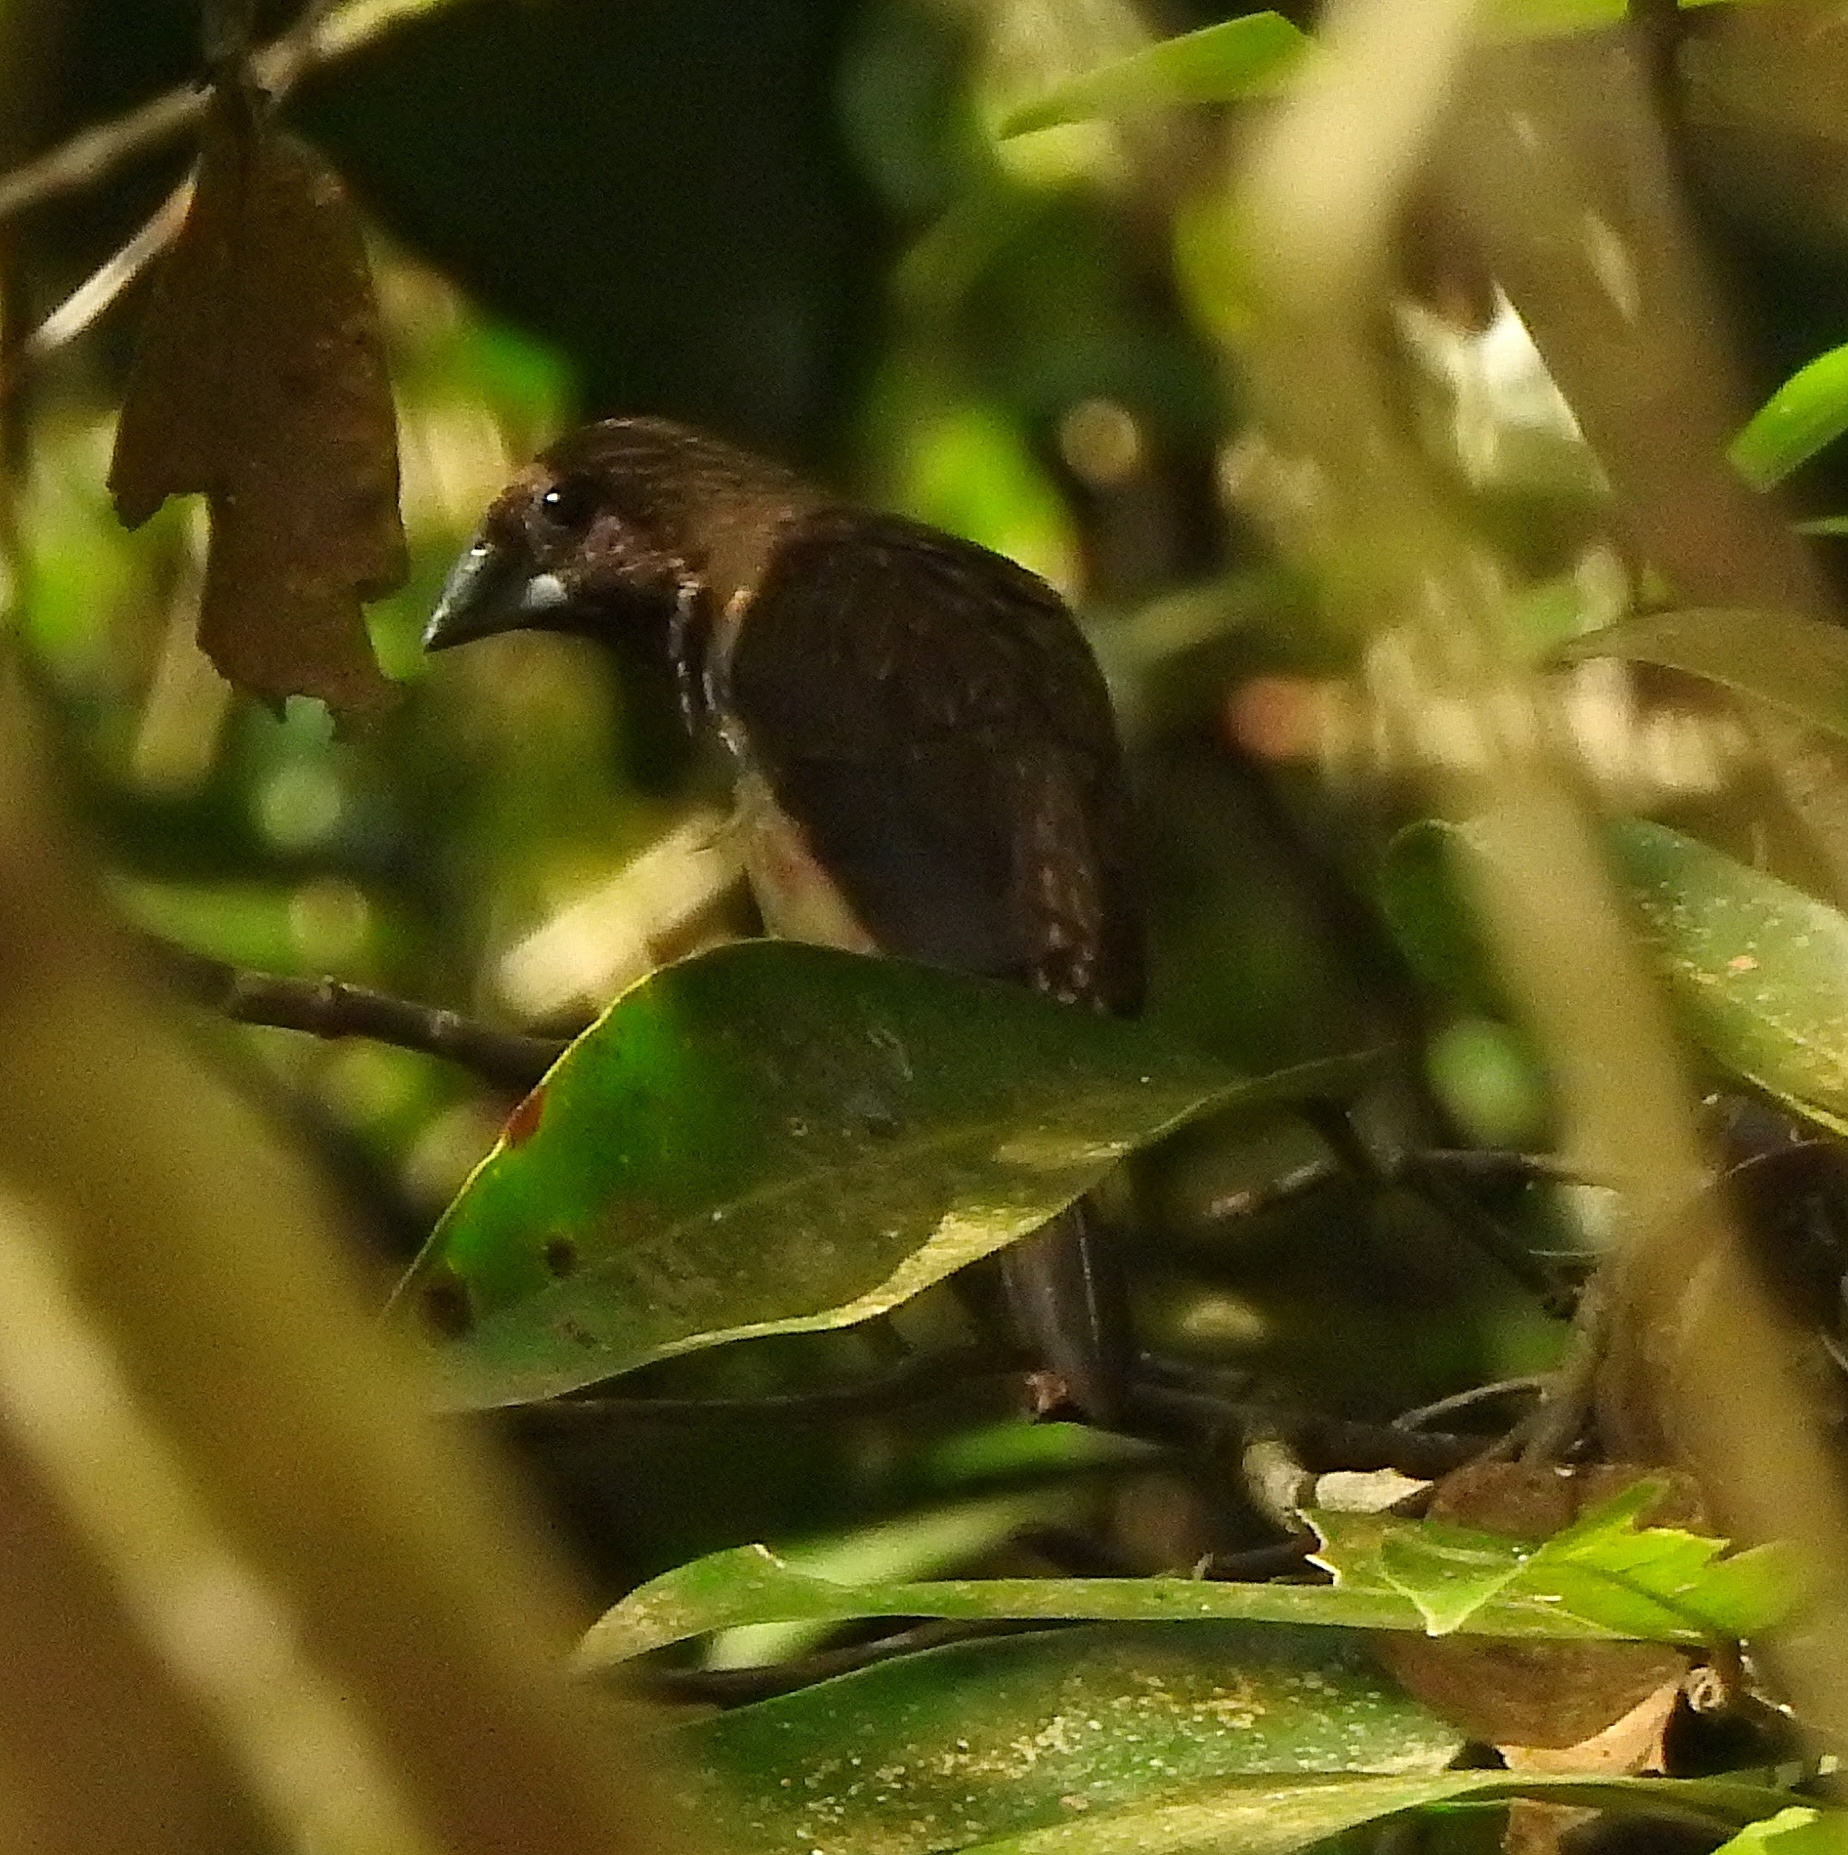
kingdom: Animalia
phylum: Chordata
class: Aves
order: Passeriformes
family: Estrildidae
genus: Lonchura
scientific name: Lonchura kelaarti
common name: Black-throated munia
